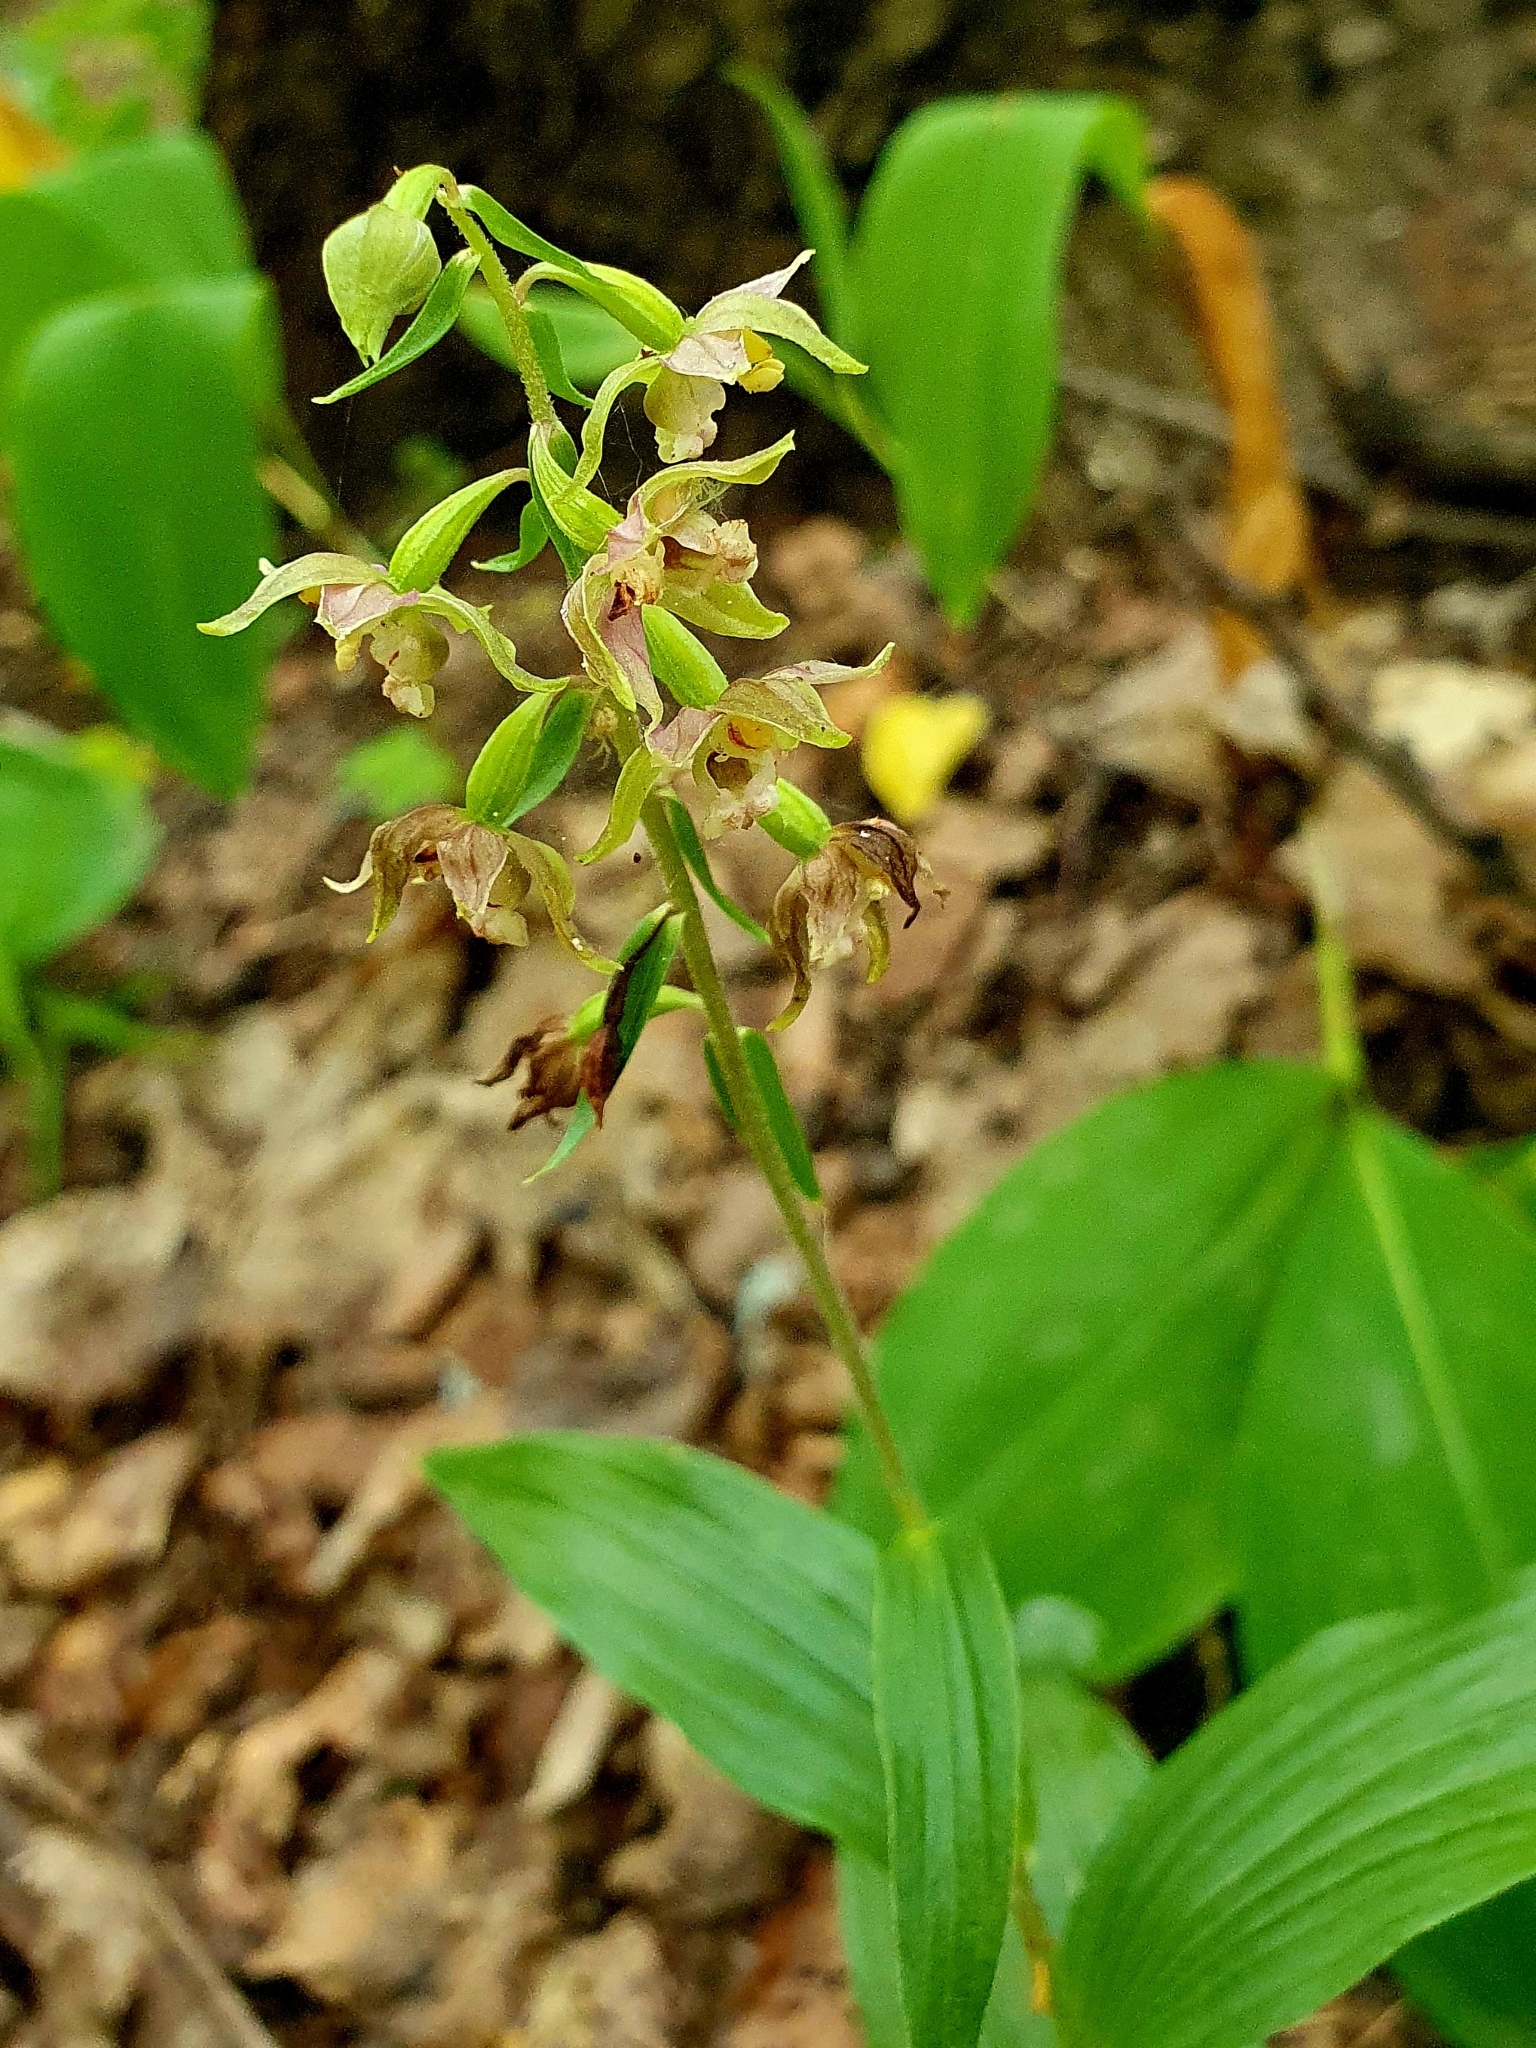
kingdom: Plantae
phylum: Tracheophyta
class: Liliopsida
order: Asparagales
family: Orchidaceae
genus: Epipactis
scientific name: Epipactis helleborine
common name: Broad-leaved helleborine
